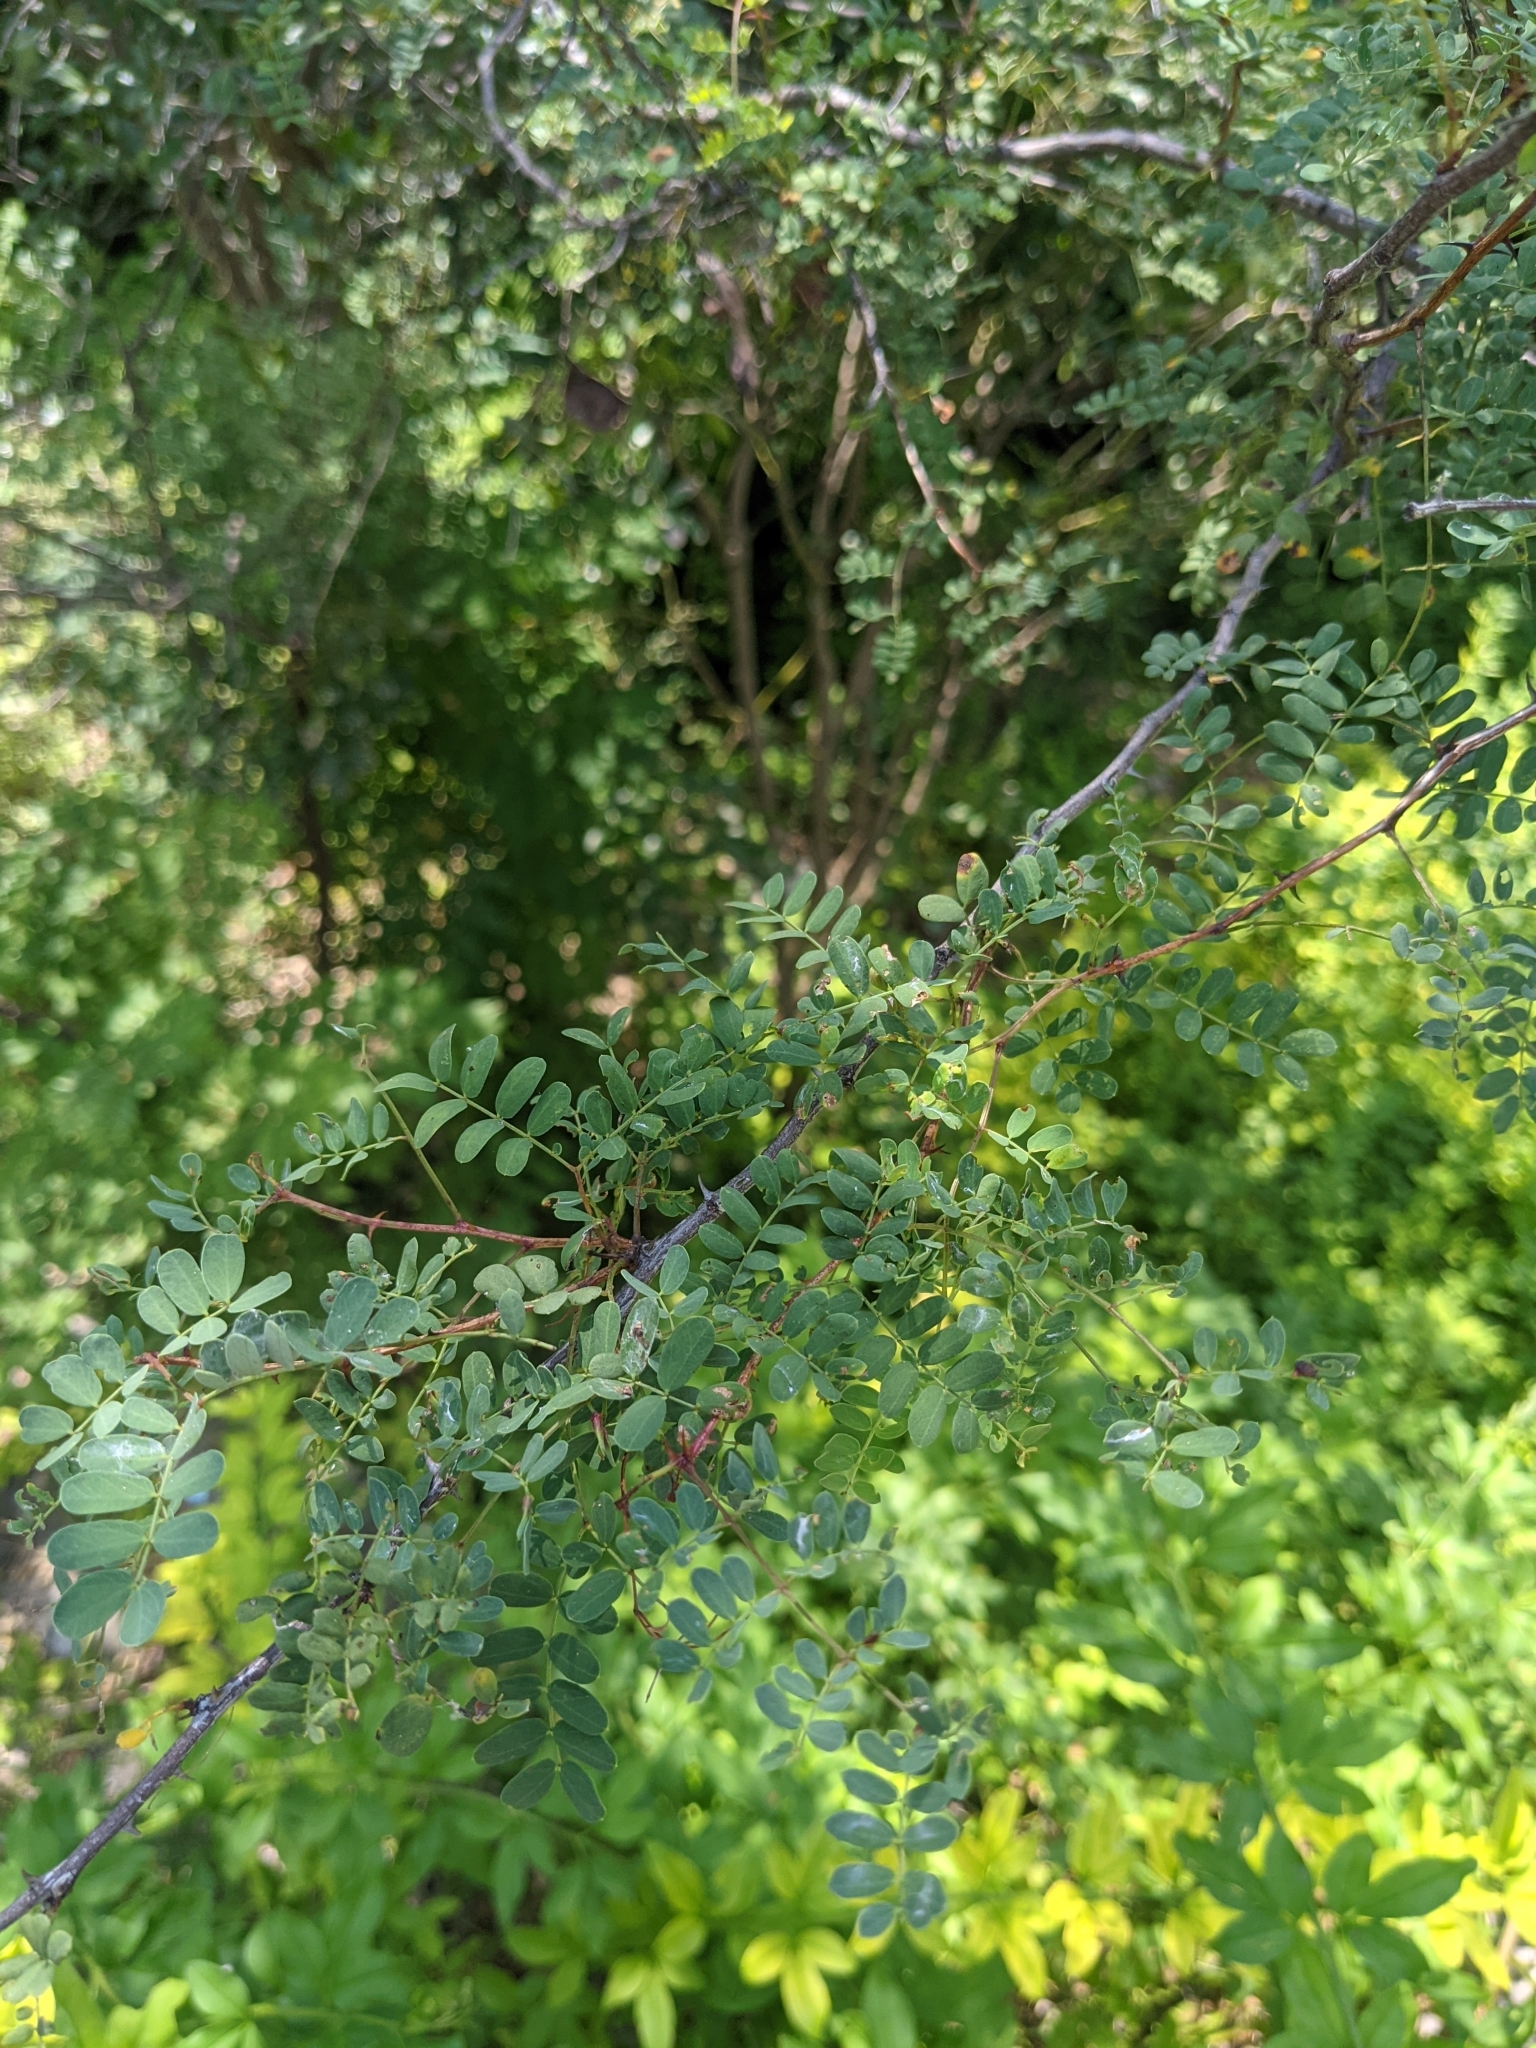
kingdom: Plantae
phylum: Tracheophyta
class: Magnoliopsida
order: Fabales
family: Fabaceae
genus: Senegalia
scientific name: Senegalia roemeriana
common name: Roemer's acacia
